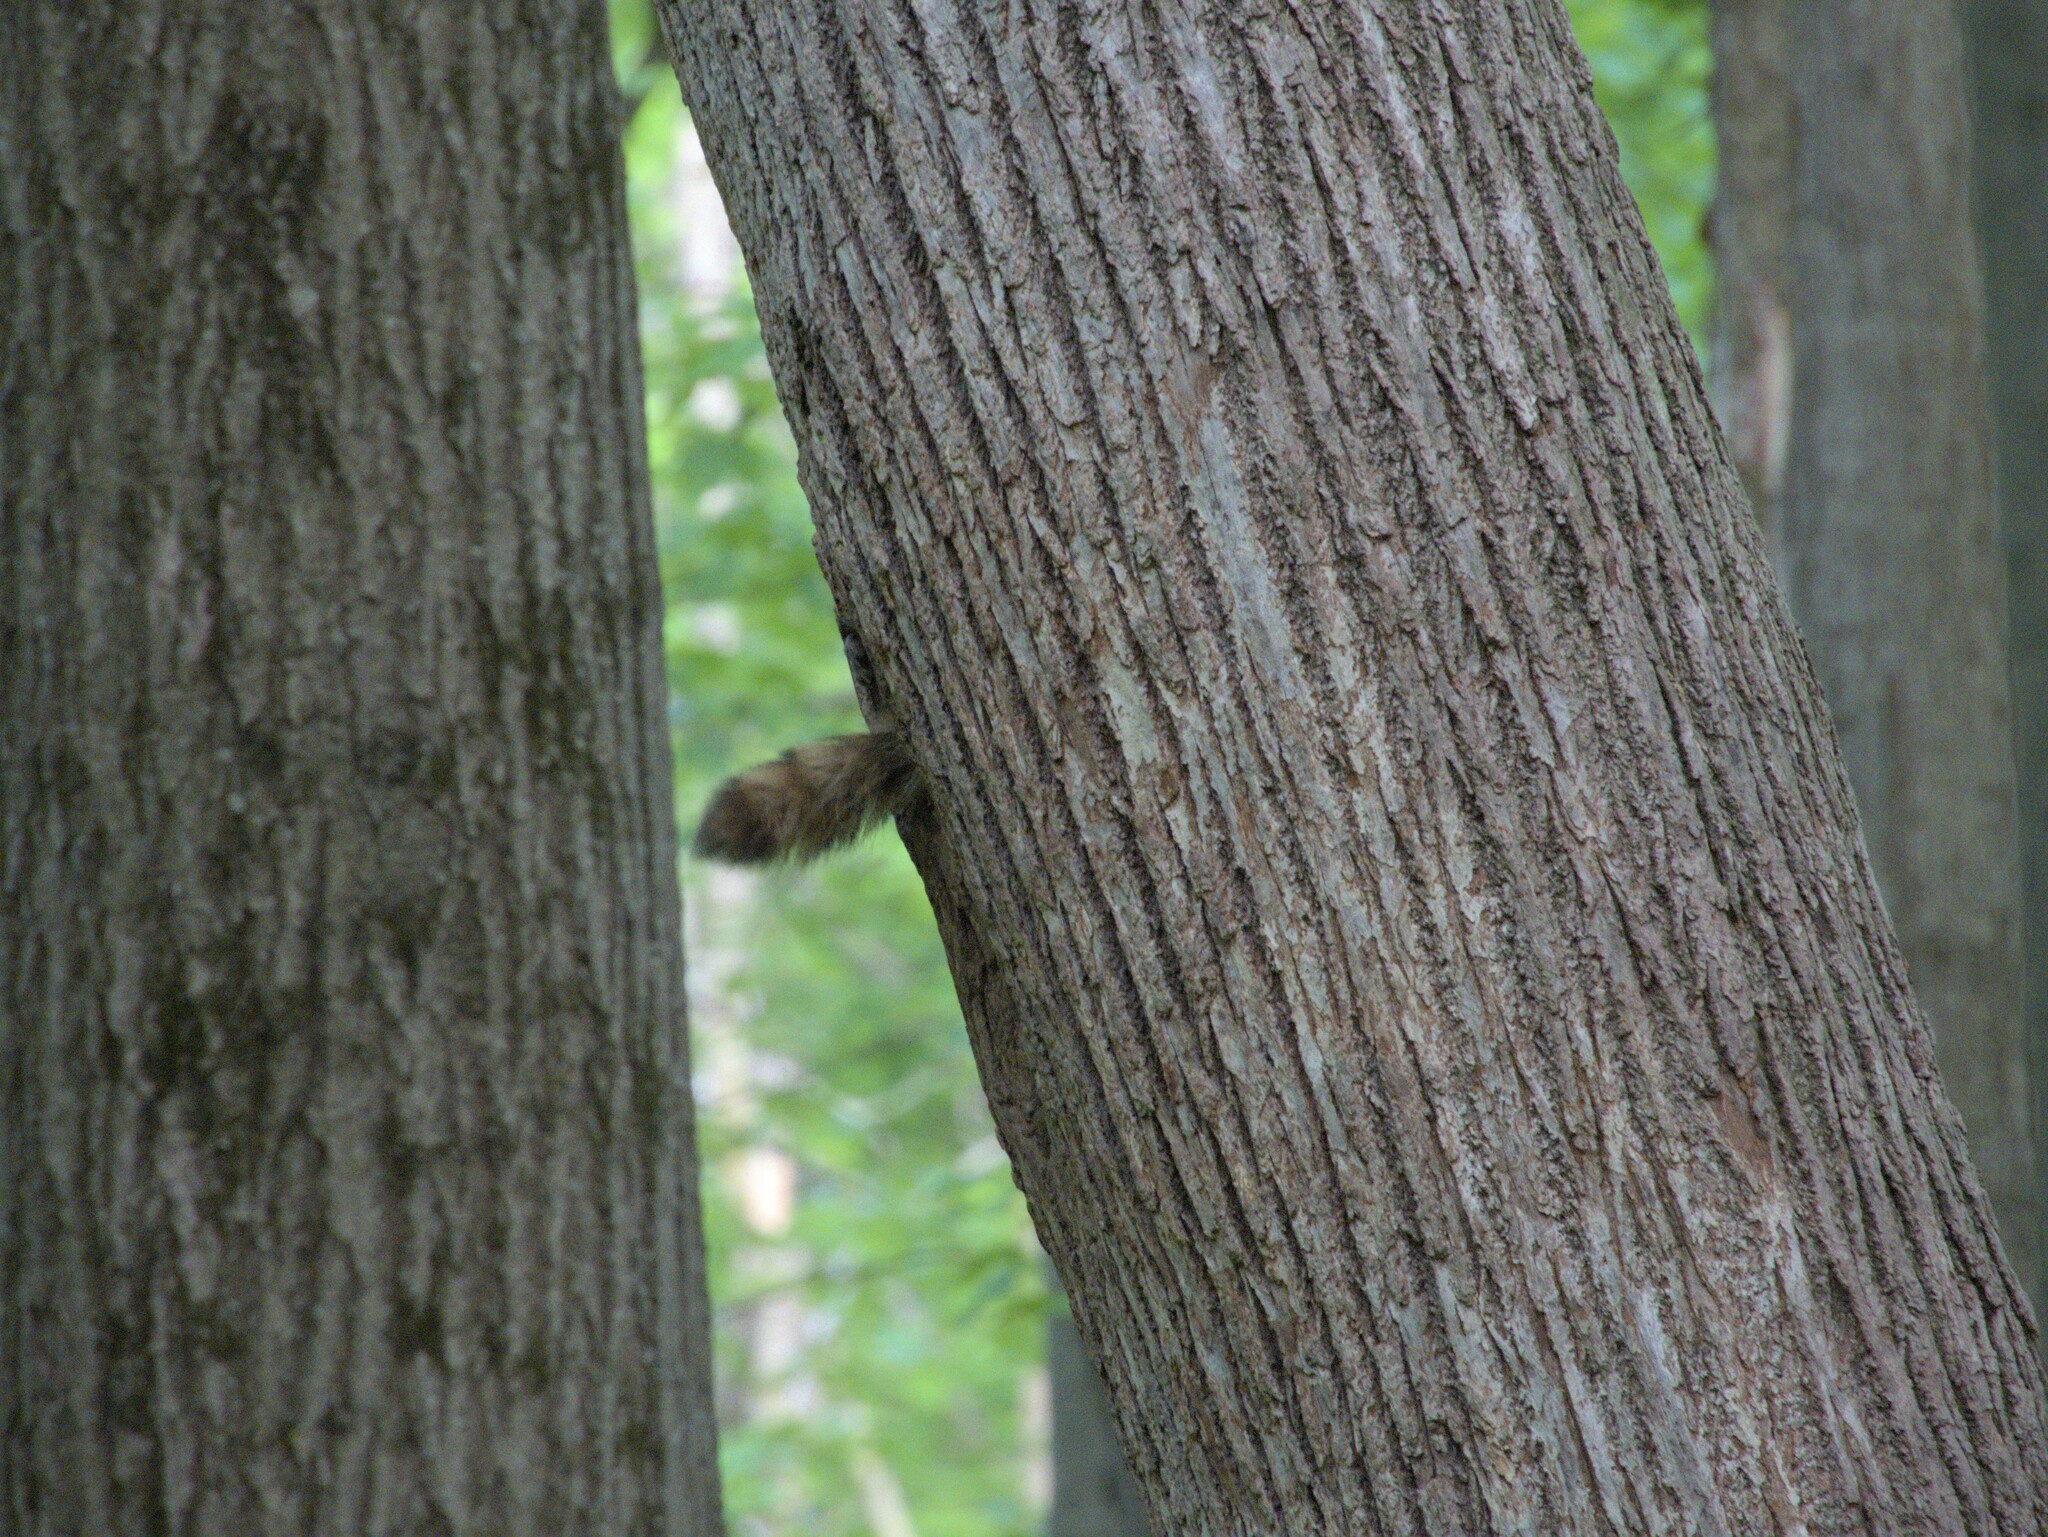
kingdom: Animalia
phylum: Chordata
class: Mammalia
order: Carnivora
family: Procyonidae
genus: Procyon
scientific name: Procyon lotor
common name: Raccoon
